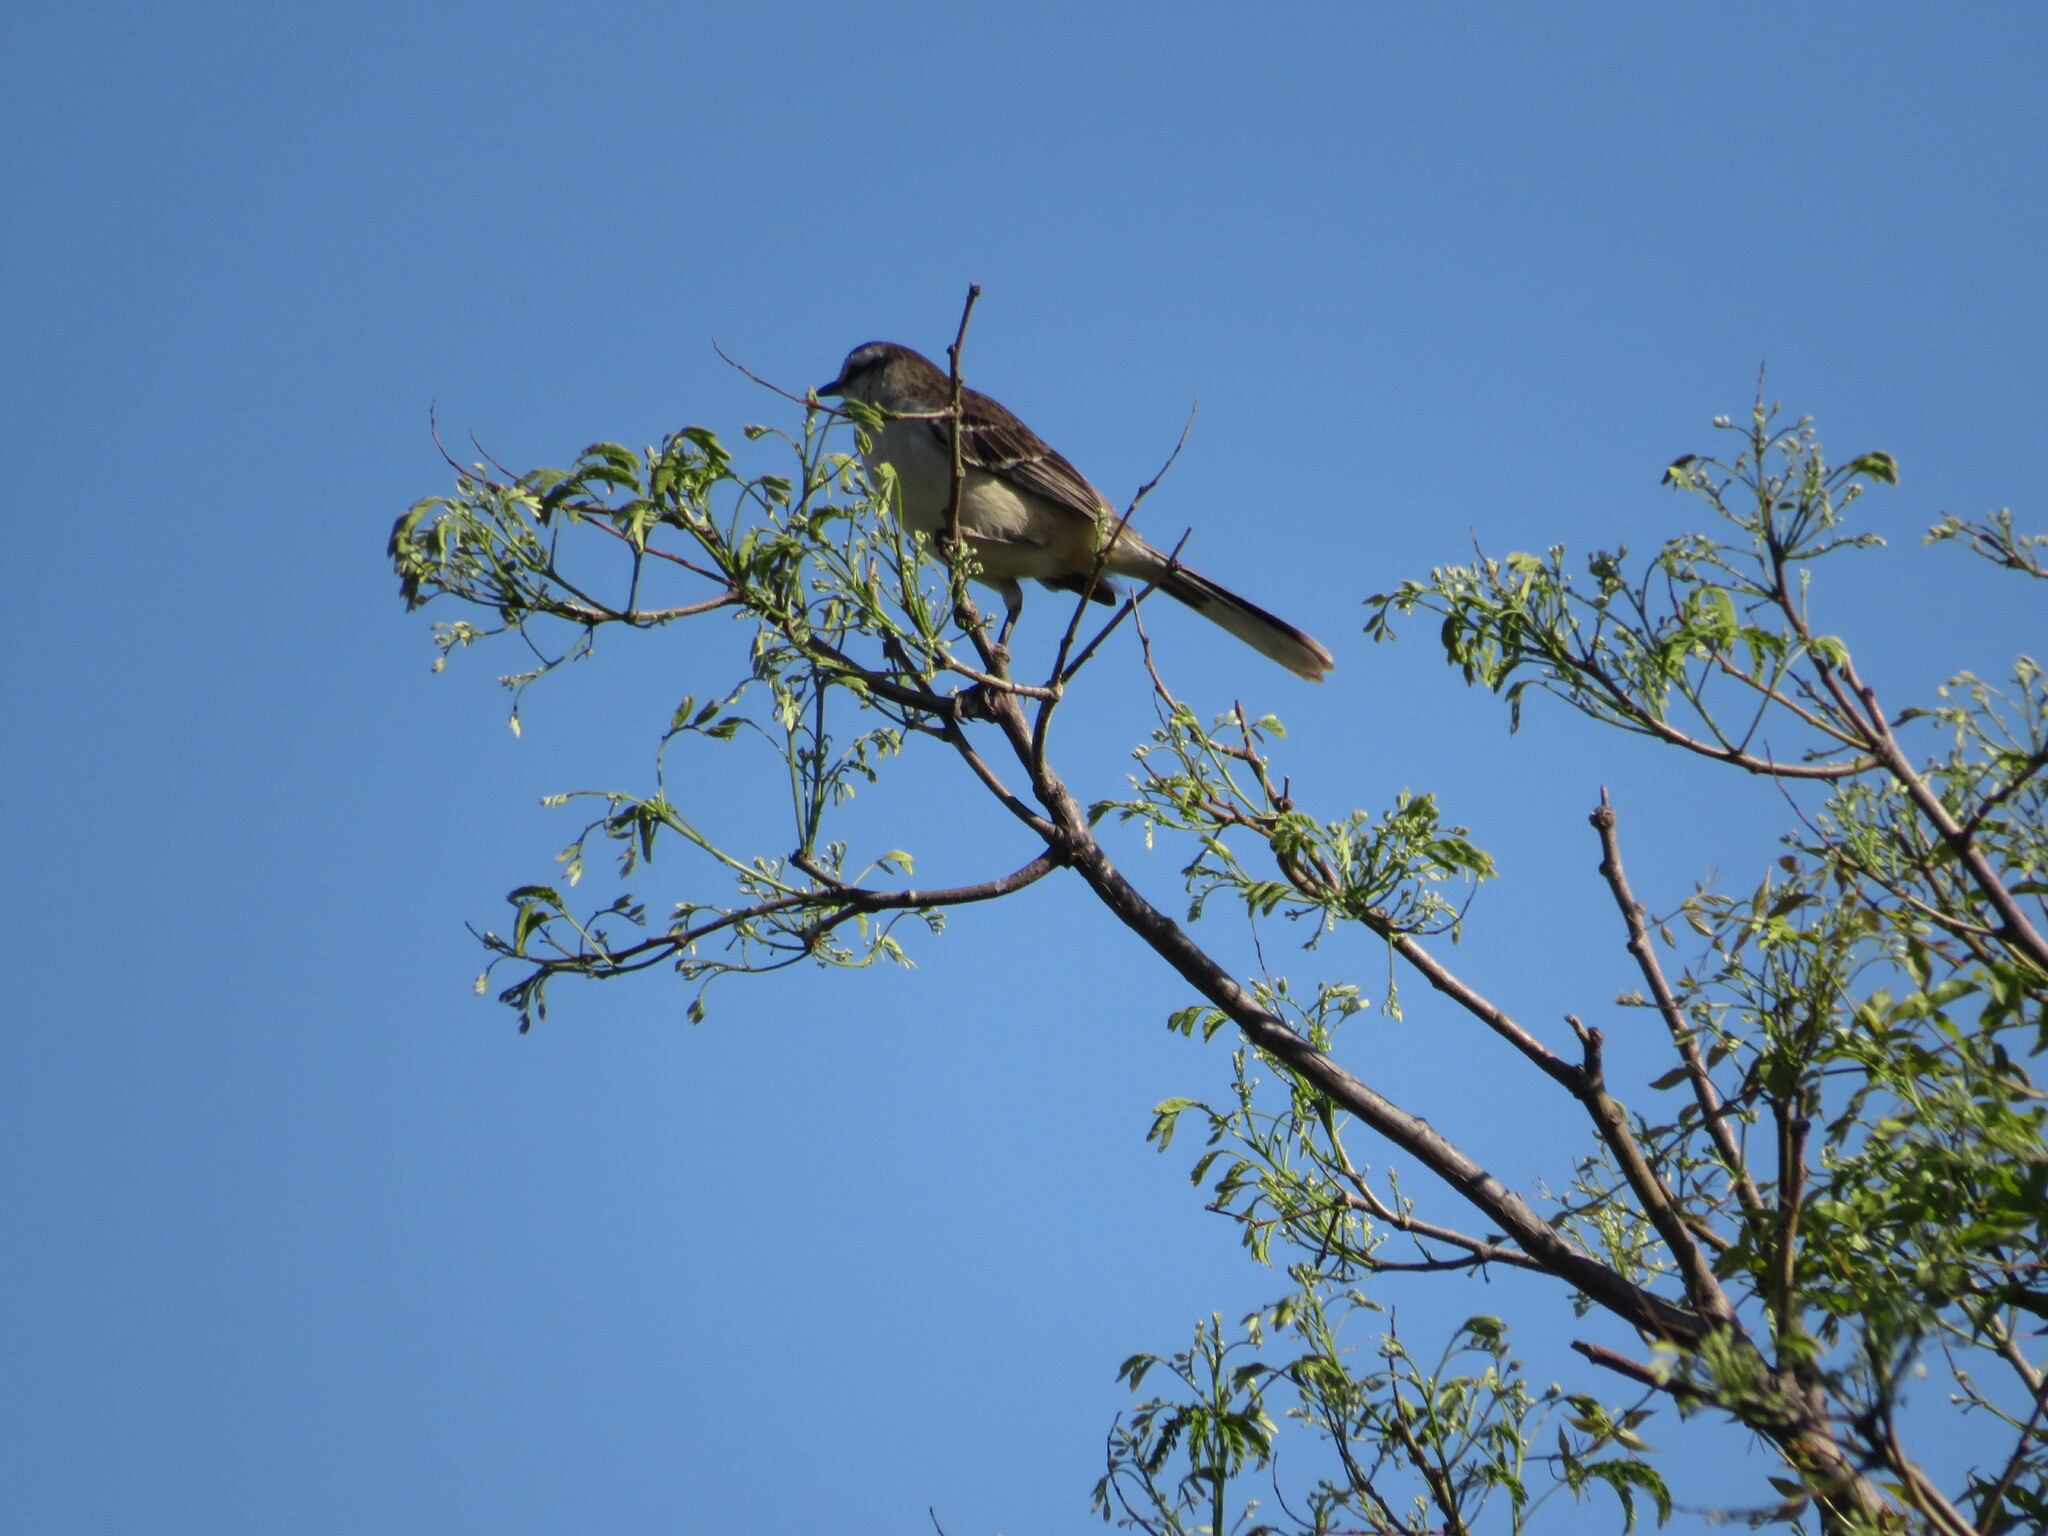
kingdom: Animalia
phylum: Chordata
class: Aves
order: Passeriformes
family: Mimidae
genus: Mimus
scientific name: Mimus saturninus
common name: Chalk-browed mockingbird
